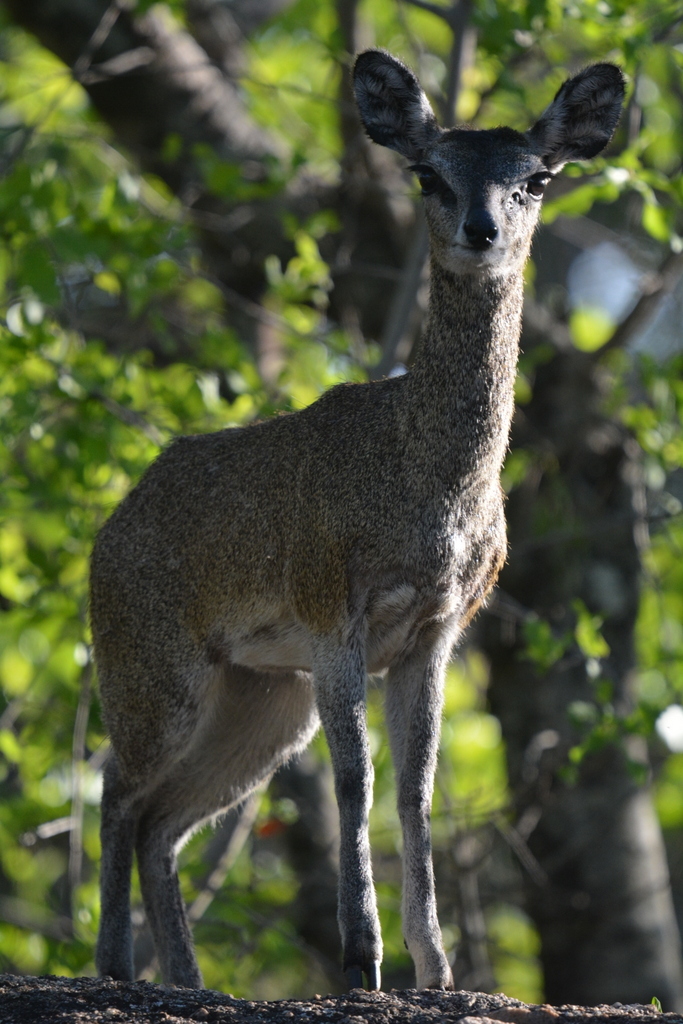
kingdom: Animalia
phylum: Chordata
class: Mammalia
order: Artiodactyla
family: Bovidae
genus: Oreotragus
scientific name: Oreotragus oreotragus
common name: Klipspringer
